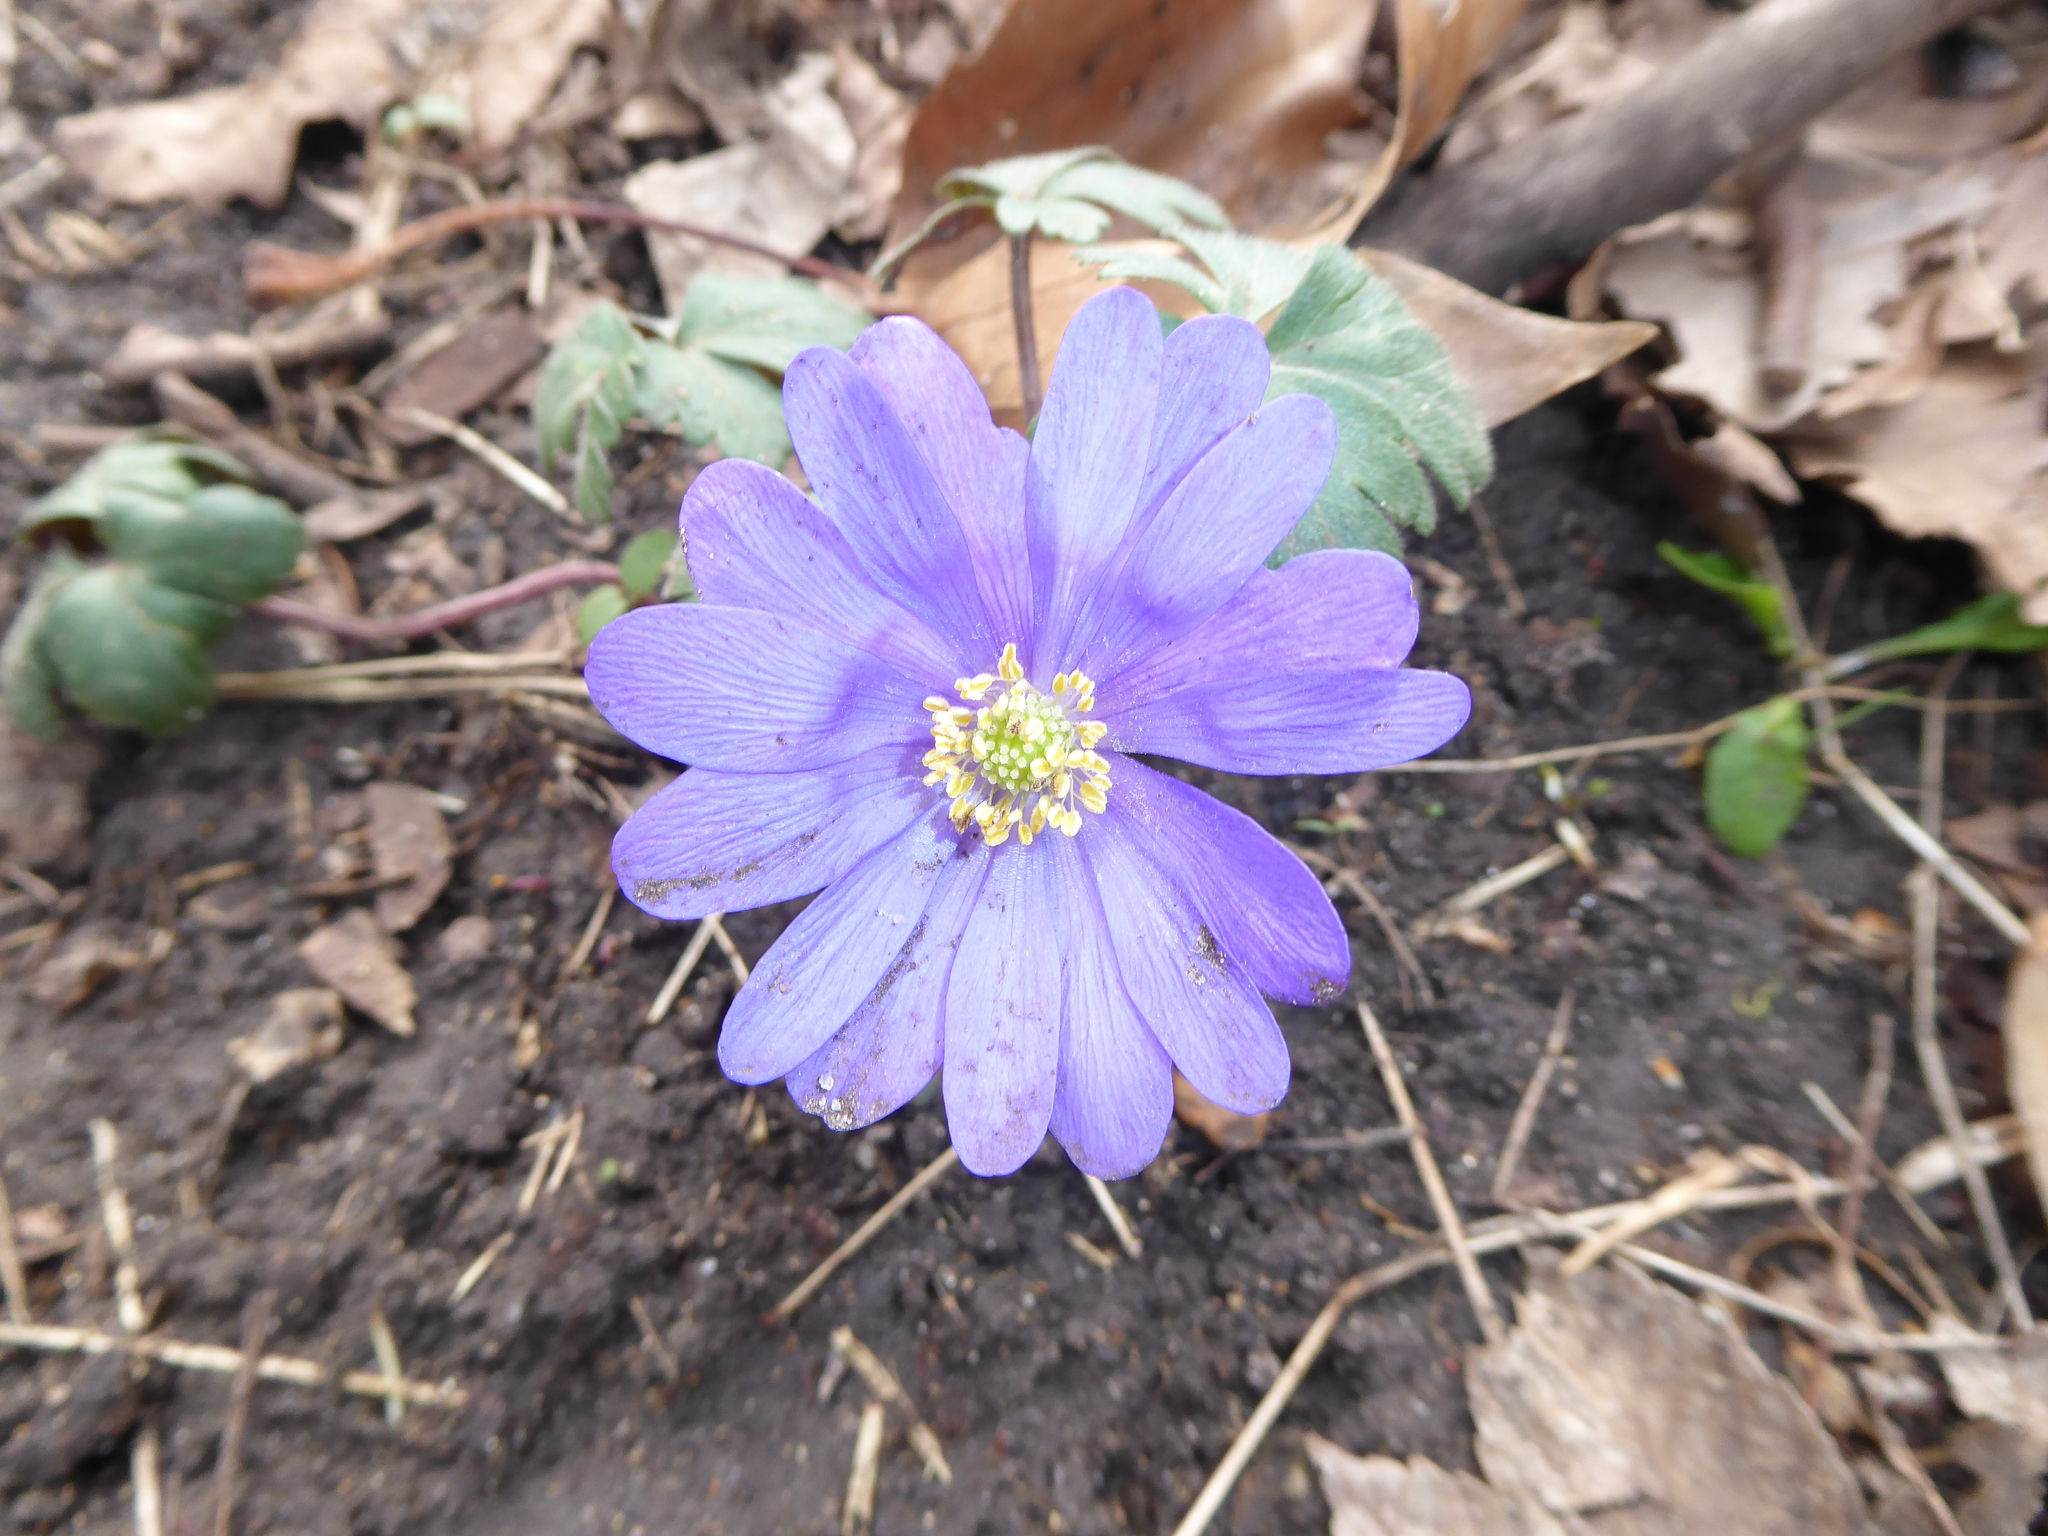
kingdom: Plantae
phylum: Tracheophyta
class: Magnoliopsida
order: Ranunculales
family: Ranunculaceae
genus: Anemone
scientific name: Anemone blanda
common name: Balkan anemone
